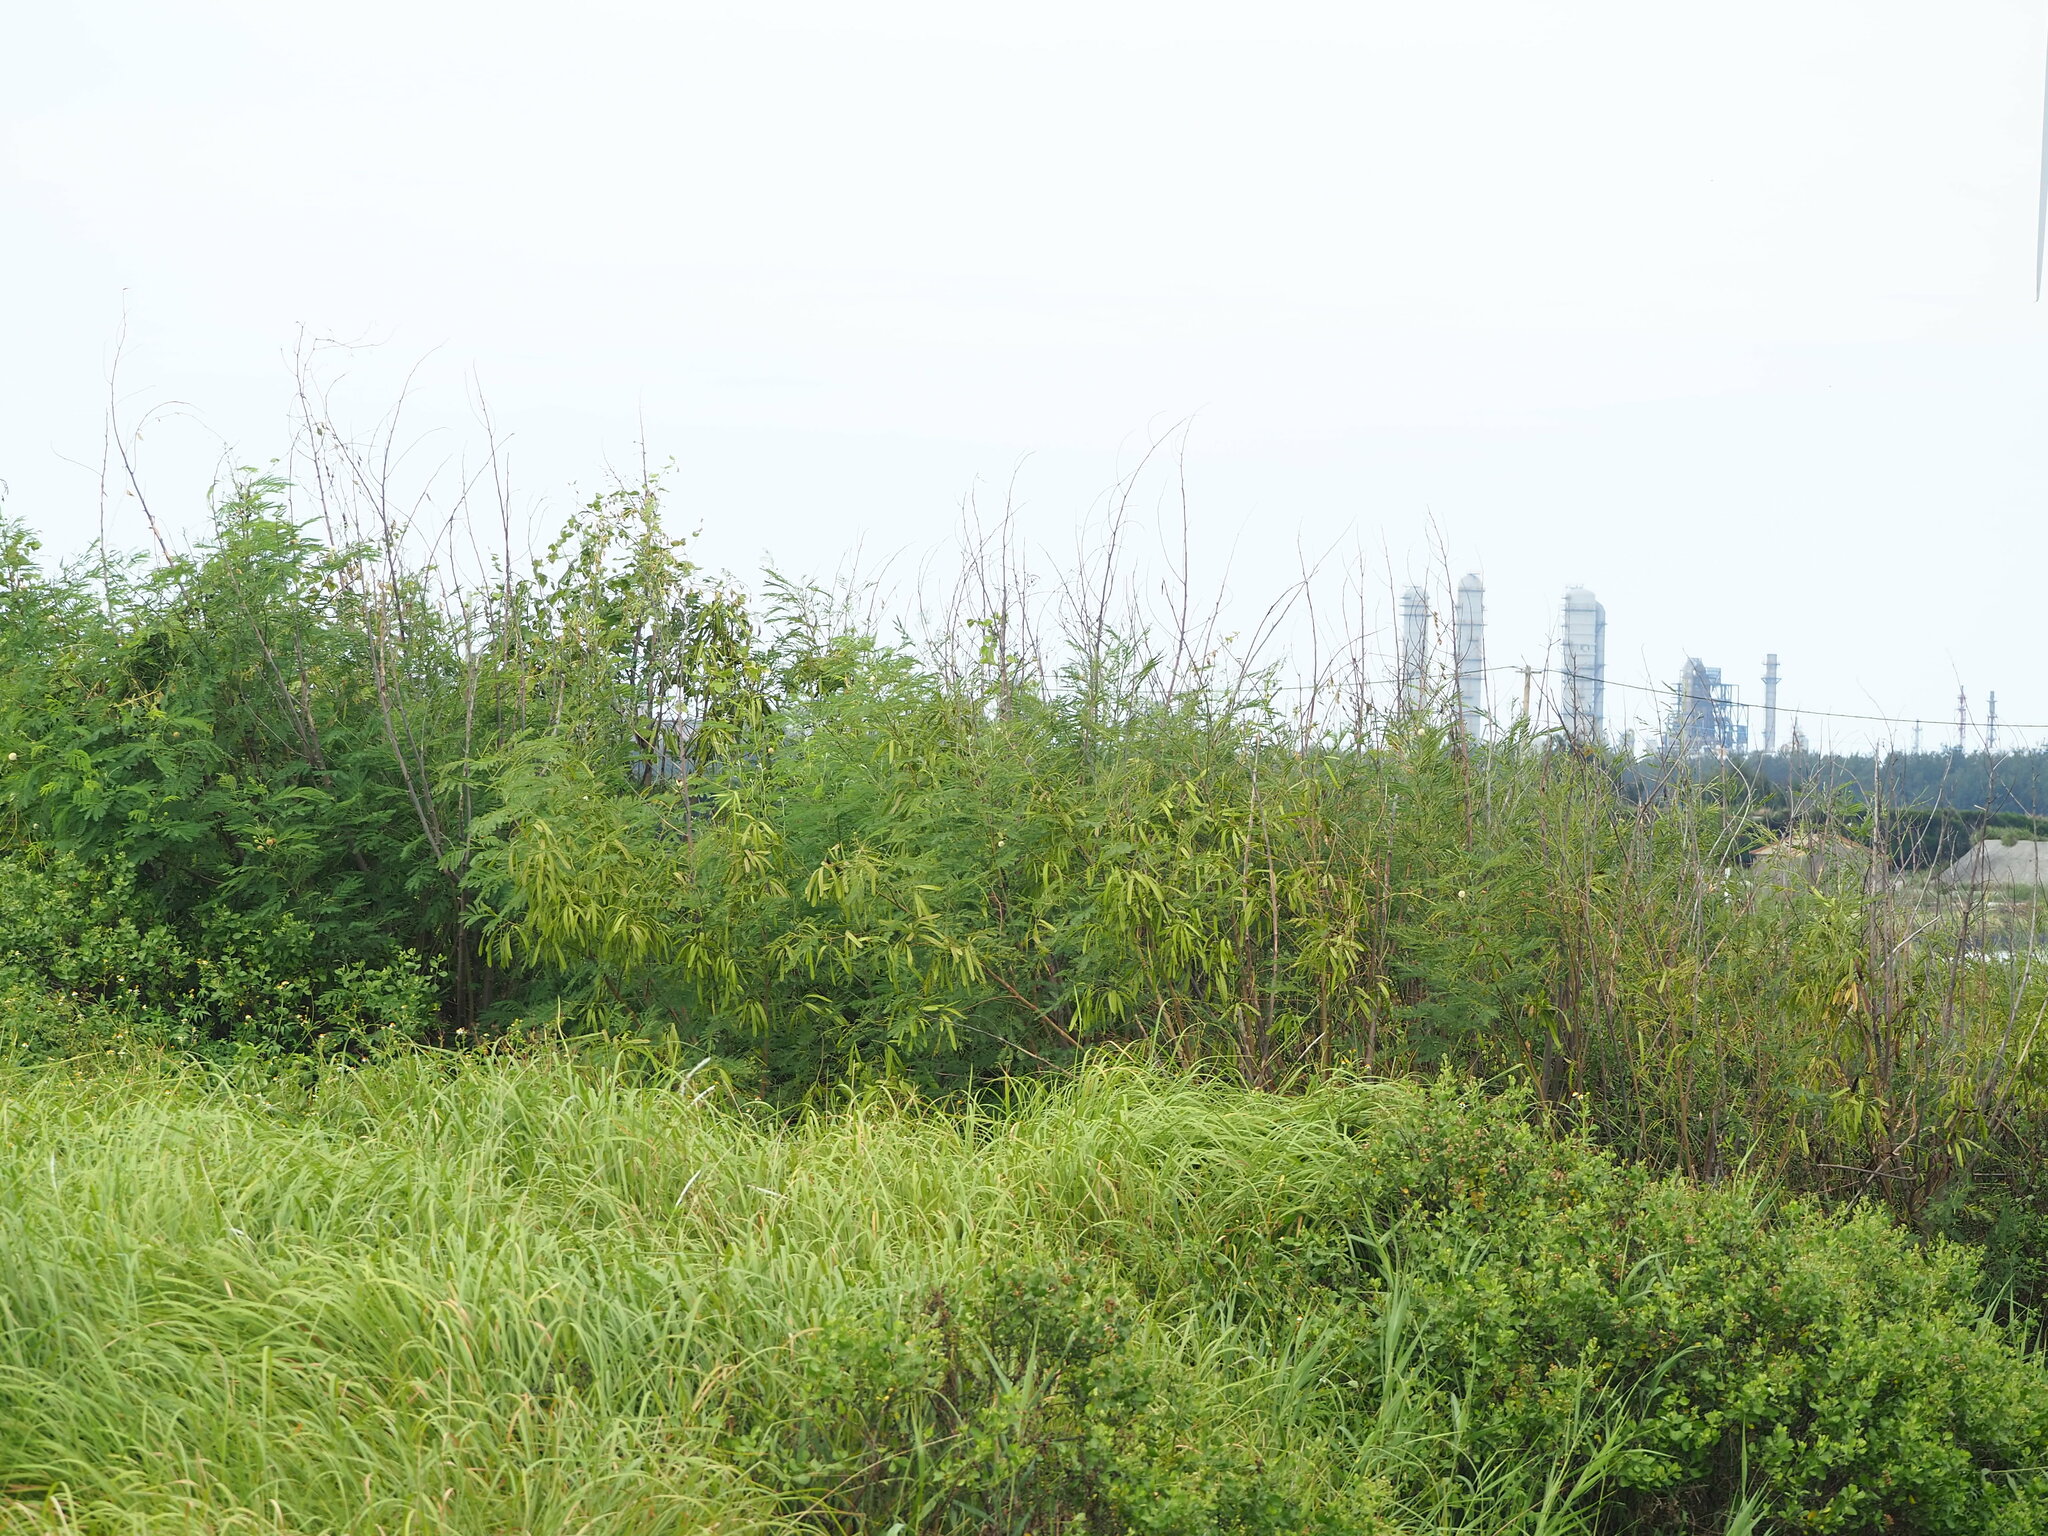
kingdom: Plantae
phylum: Tracheophyta
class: Magnoliopsida
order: Fabales
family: Fabaceae
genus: Leucaena
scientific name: Leucaena leucocephala
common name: White leadtree
